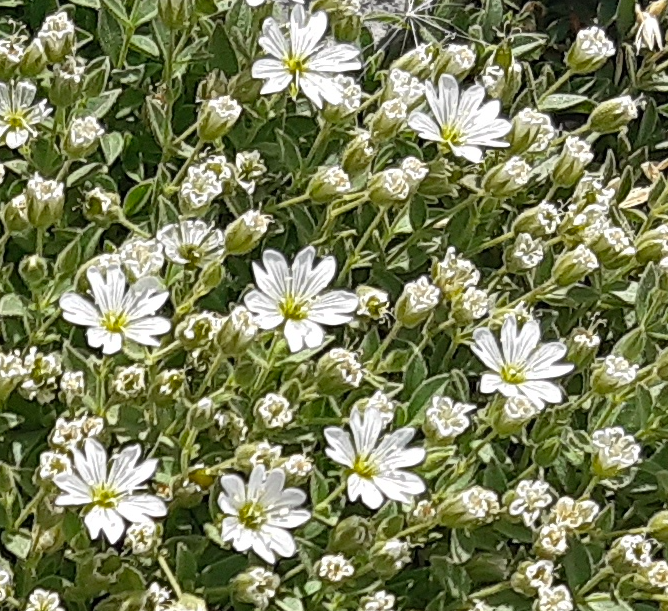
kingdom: Plantae
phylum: Tracheophyta
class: Magnoliopsida
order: Caryophyllales
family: Caryophyllaceae
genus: Cerastium
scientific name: Cerastium dinaricum
